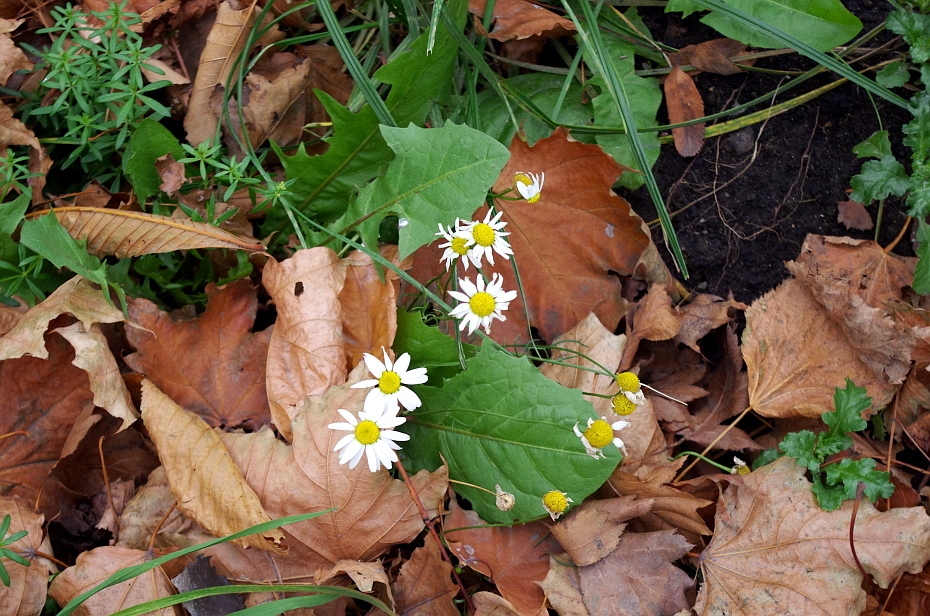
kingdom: Plantae
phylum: Tracheophyta
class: Magnoliopsida
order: Asterales
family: Asteraceae
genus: Tripleurospermum
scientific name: Tripleurospermum inodorum
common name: Scentless mayweed
